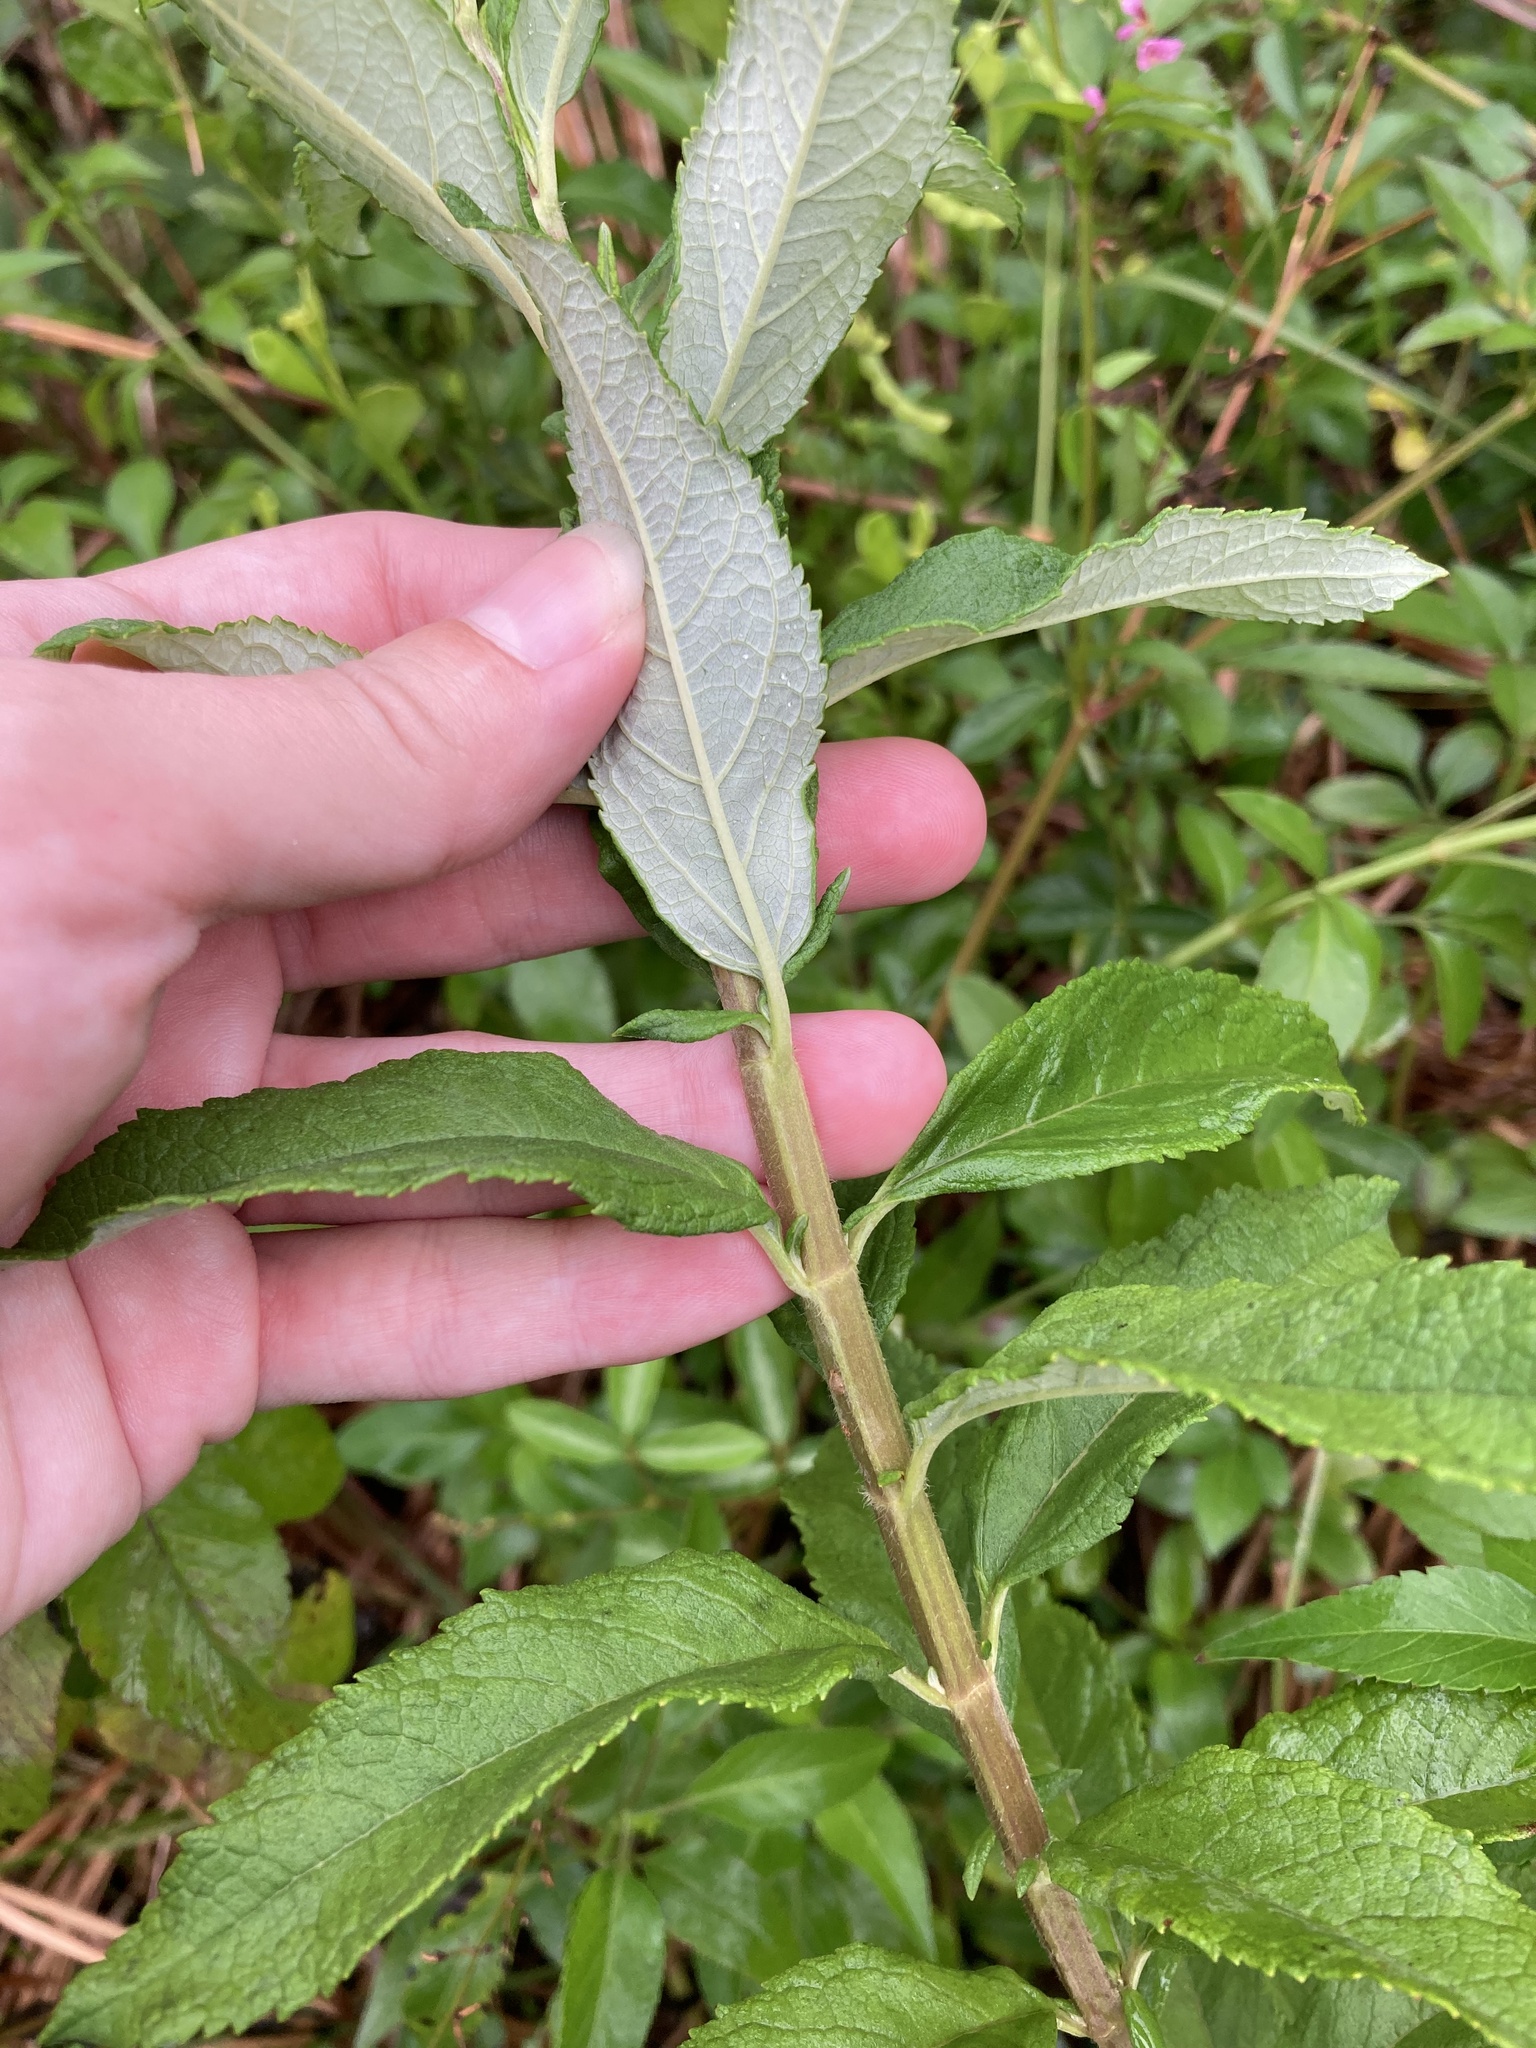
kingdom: Plantae
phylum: Tracheophyta
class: Magnoliopsida
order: Lamiales
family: Lamiaceae
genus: Teucrium
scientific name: Teucrium canadense
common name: American germander
